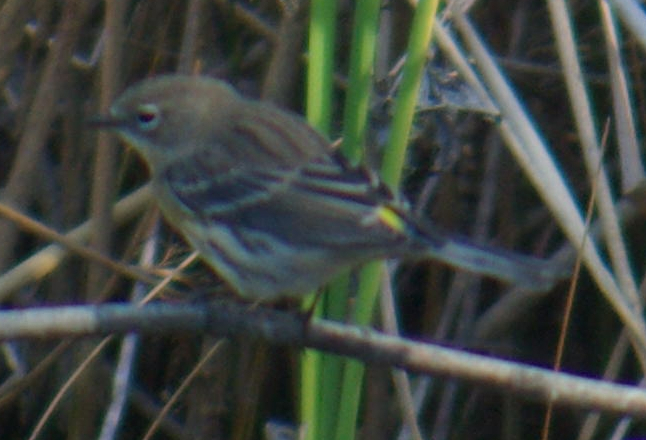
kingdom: Animalia
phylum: Chordata
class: Aves
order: Passeriformes
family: Parulidae
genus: Setophaga
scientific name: Setophaga coronata
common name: Myrtle warbler
